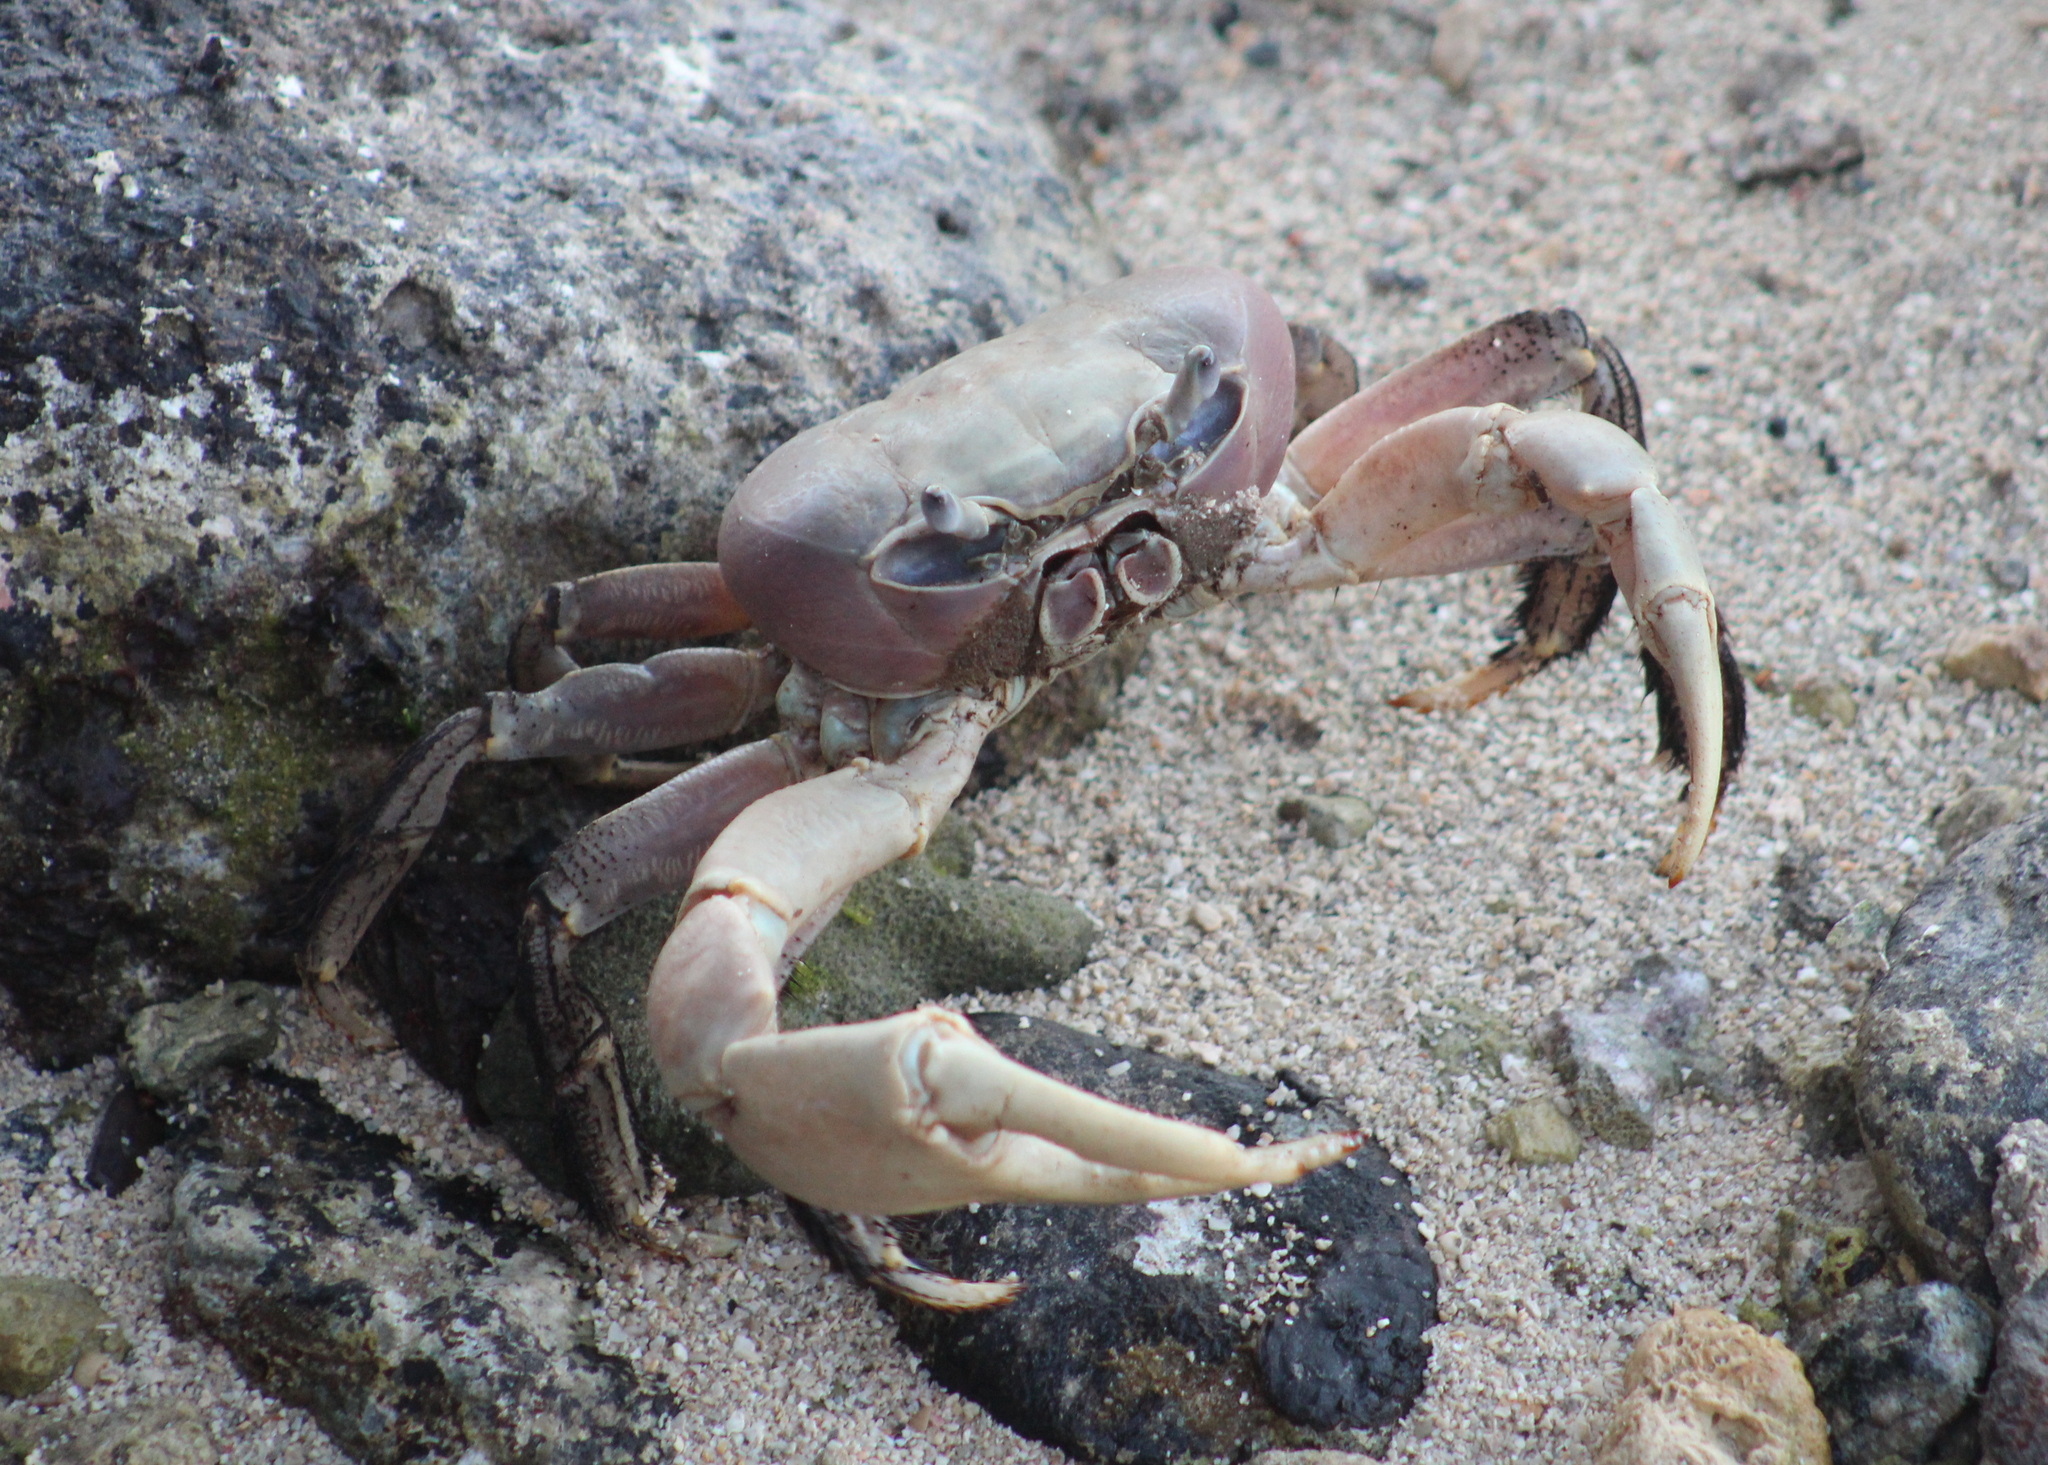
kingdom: Animalia
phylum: Arthropoda
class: Malacostraca
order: Decapoda
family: Gecarcinidae
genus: Cardisoma
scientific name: Cardisoma carnifex
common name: Brown land crab
